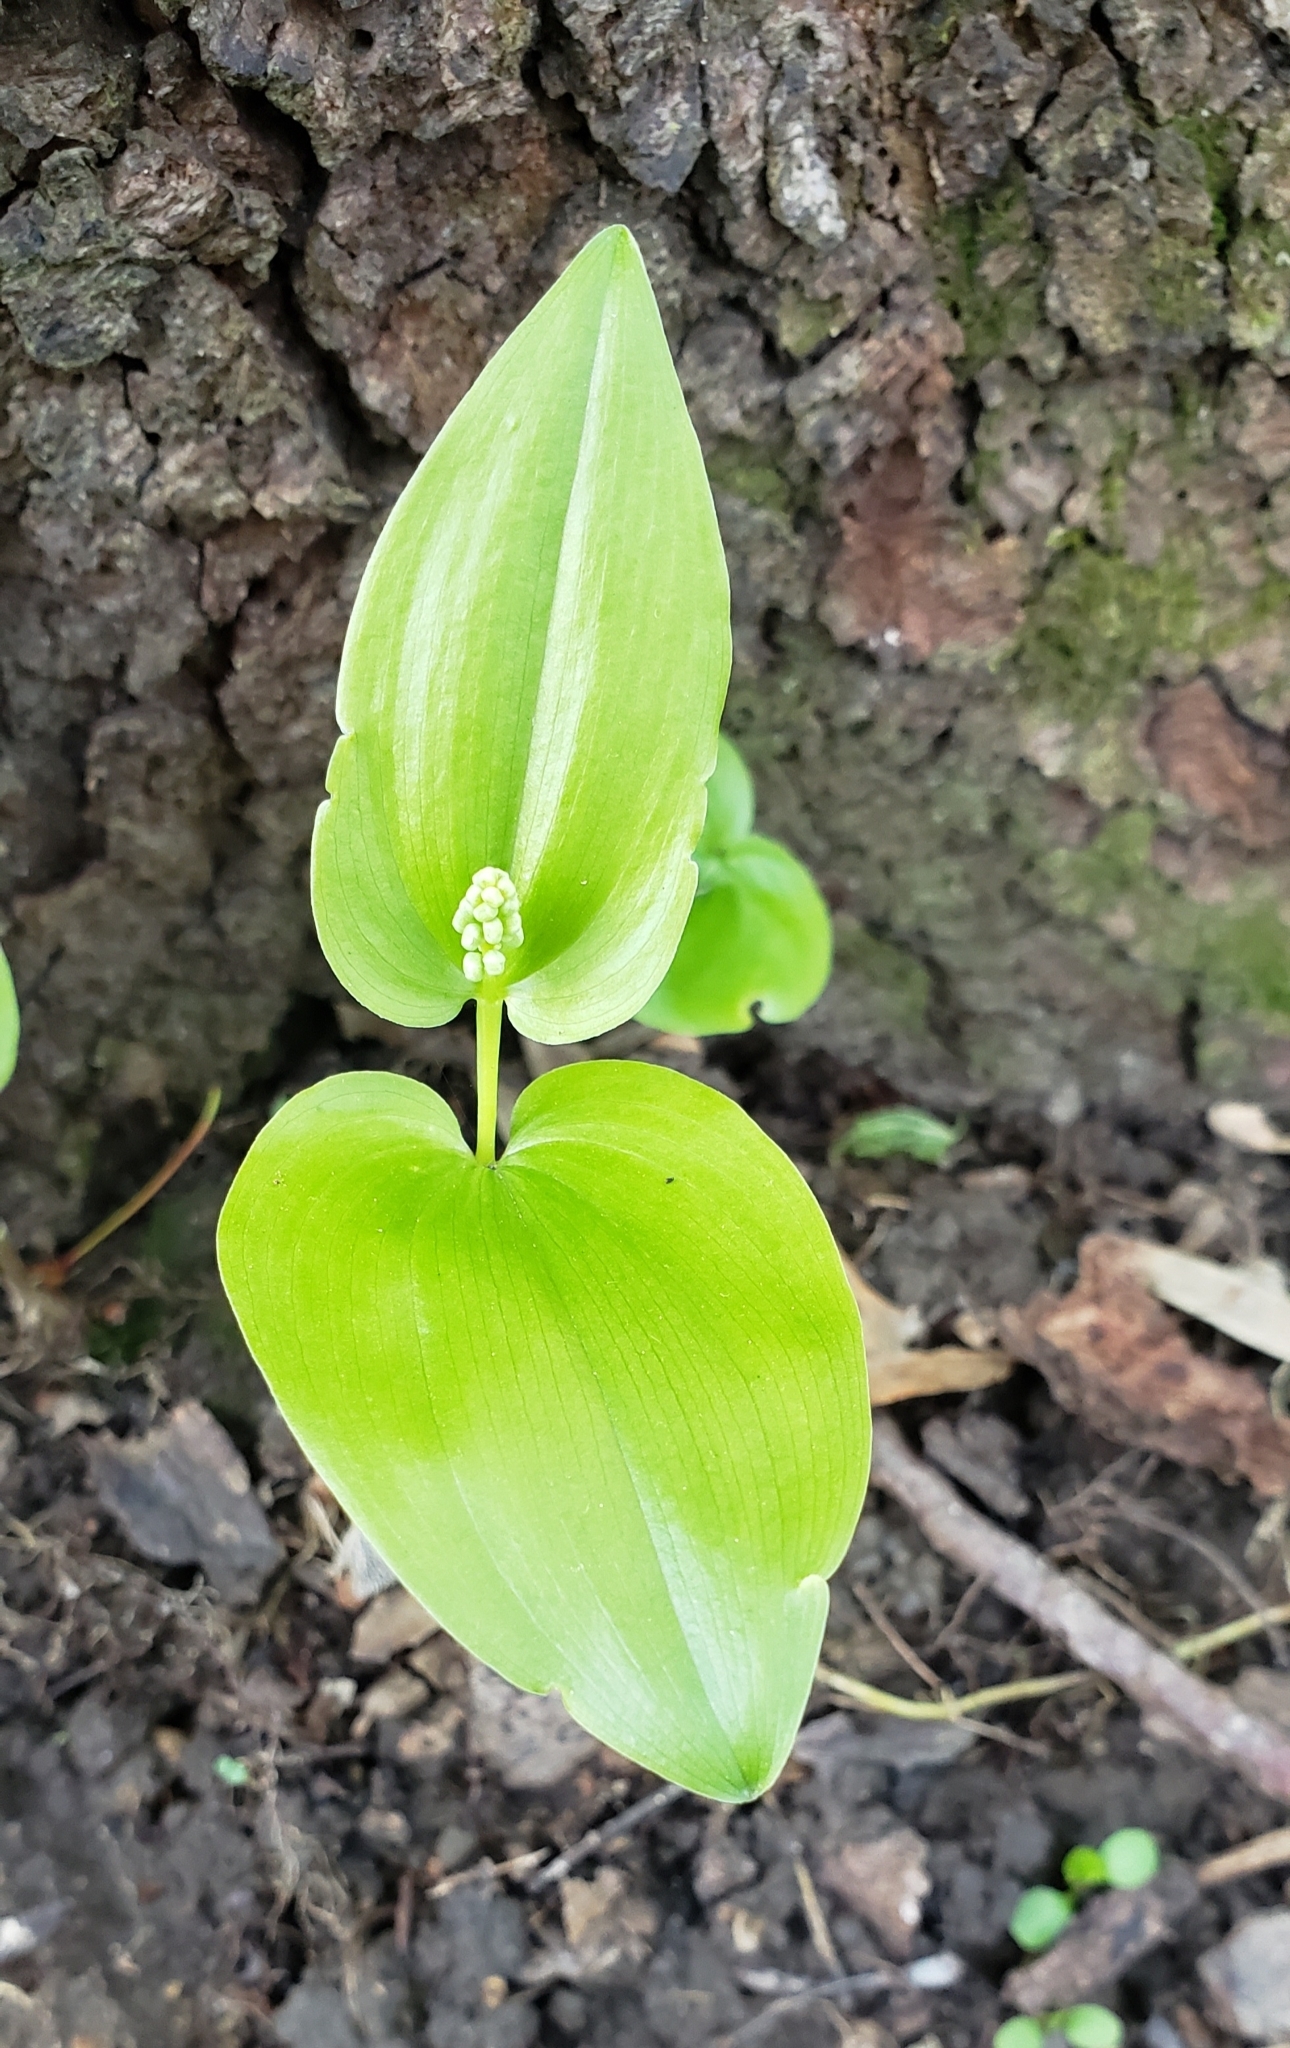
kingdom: Plantae
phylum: Tracheophyta
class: Liliopsida
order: Asparagales
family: Asparagaceae
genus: Maianthemum
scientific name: Maianthemum canadense
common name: False lily-of-the-valley
